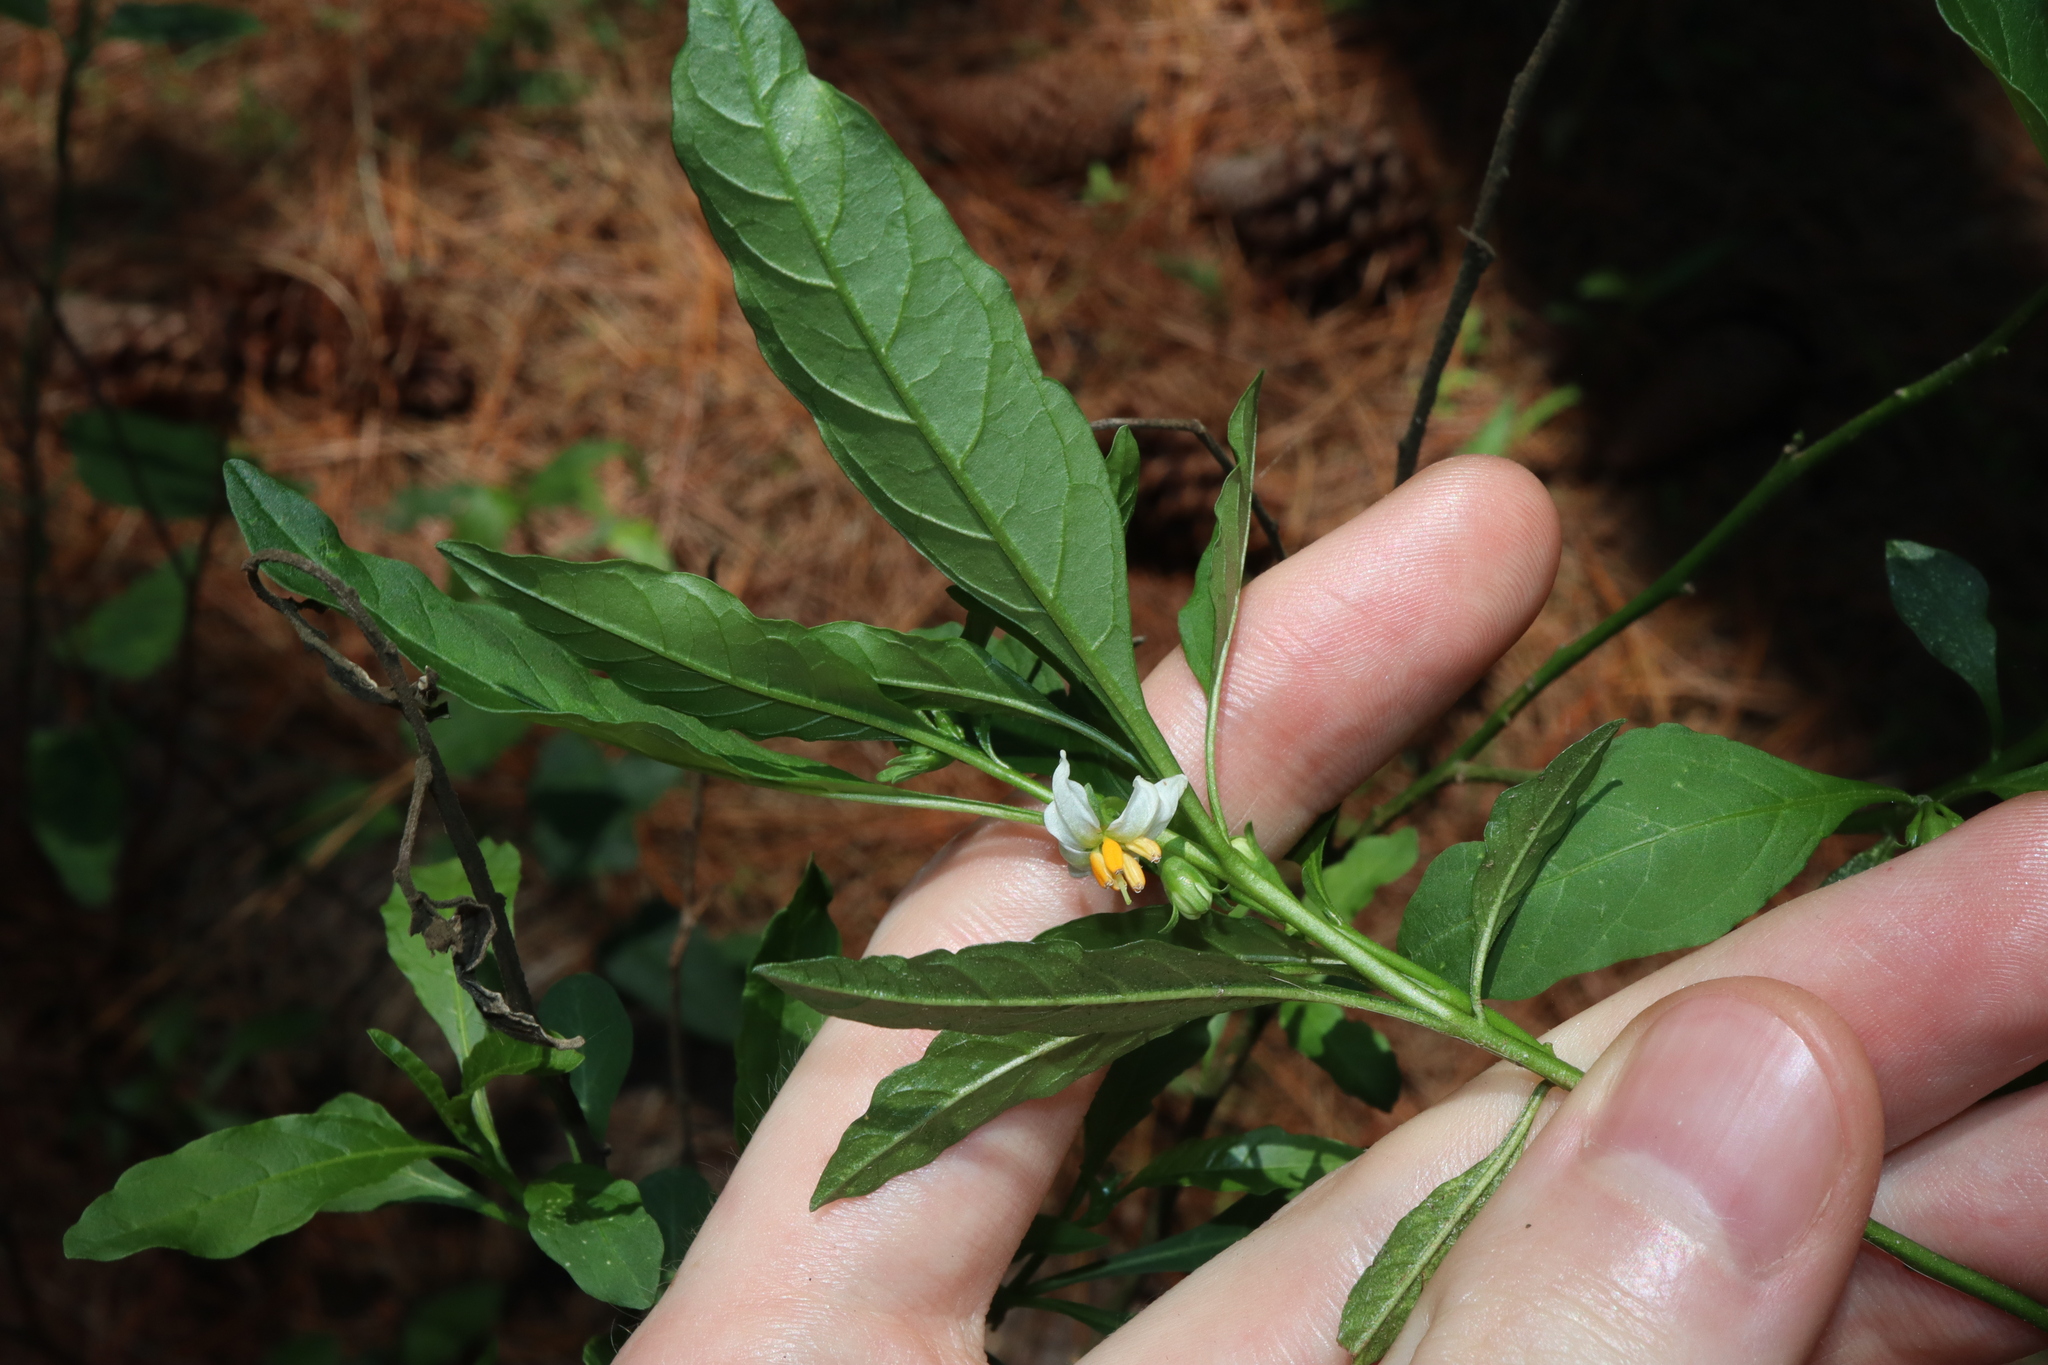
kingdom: Plantae
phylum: Tracheophyta
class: Magnoliopsida
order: Solanales
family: Solanaceae
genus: Solanum
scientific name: Solanum pseudocapsicum
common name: Jerusalem cherry
